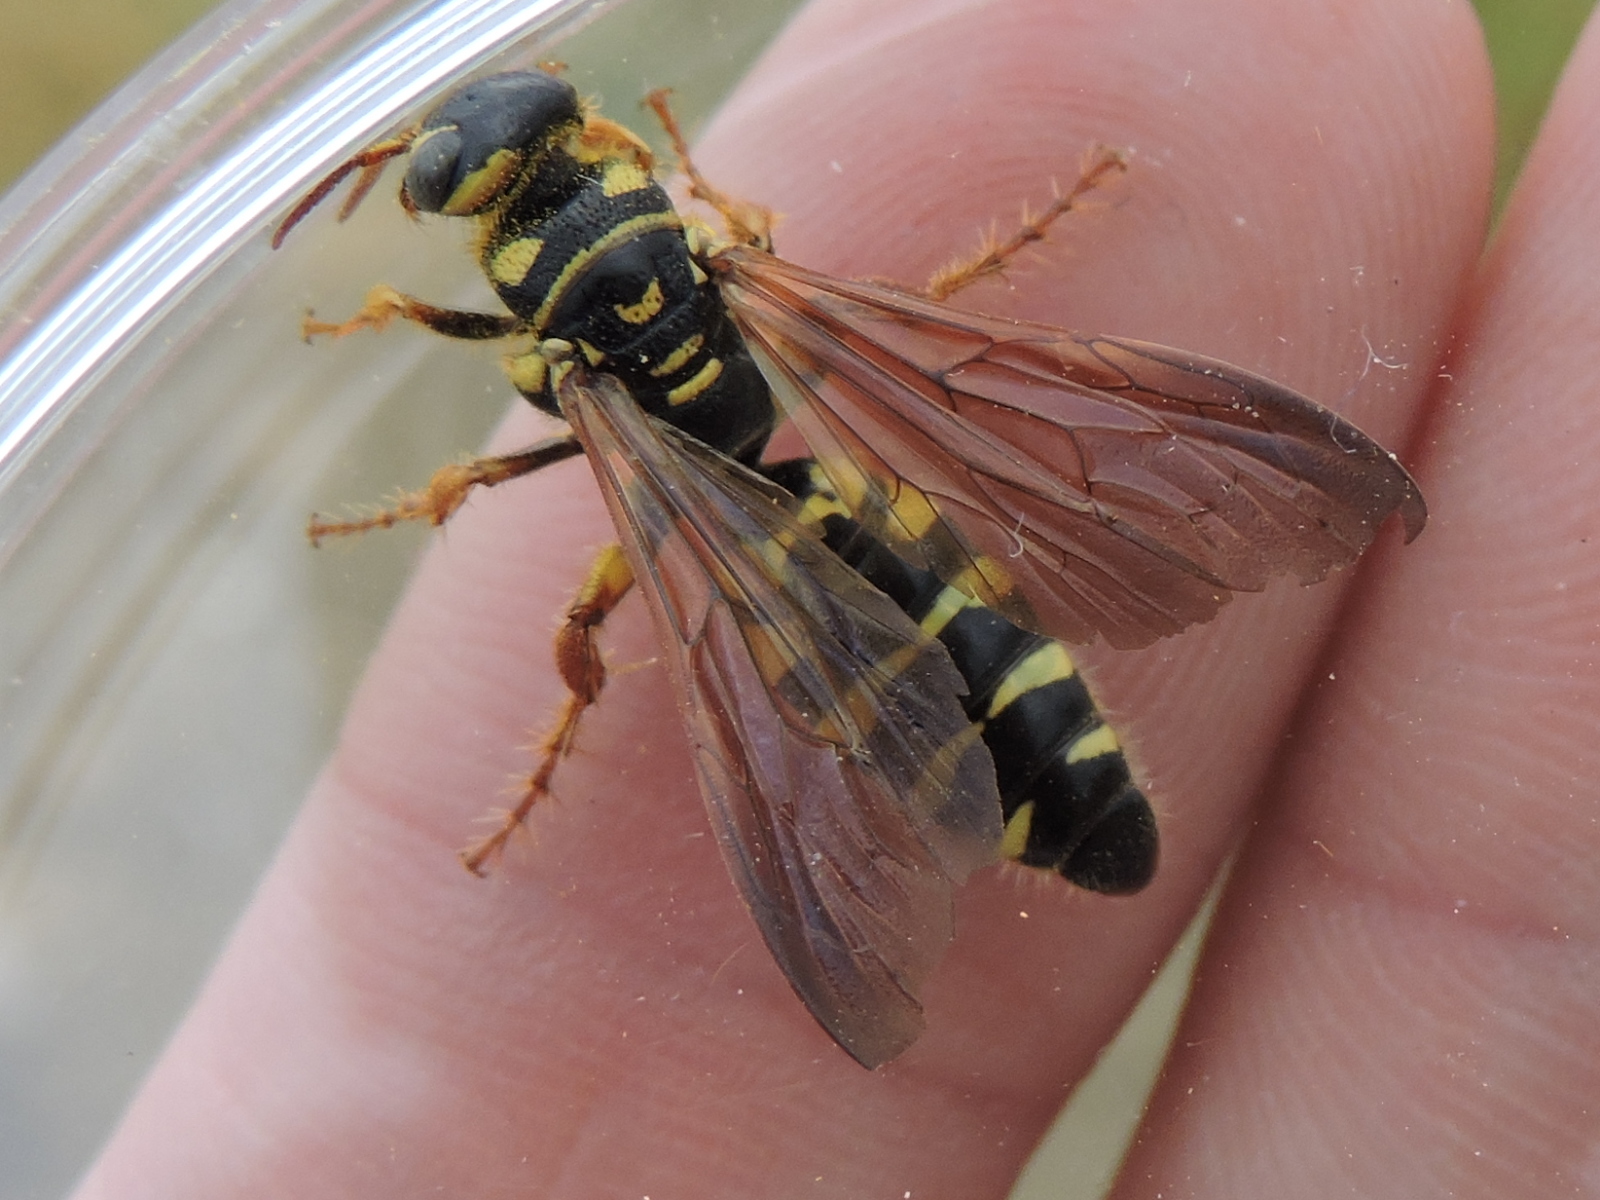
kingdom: Animalia
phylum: Arthropoda
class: Insecta
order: Hymenoptera
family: Tiphiidae
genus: Myzinum
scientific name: Myzinum quinquecinctum
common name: Five-banded thynnid wasp
